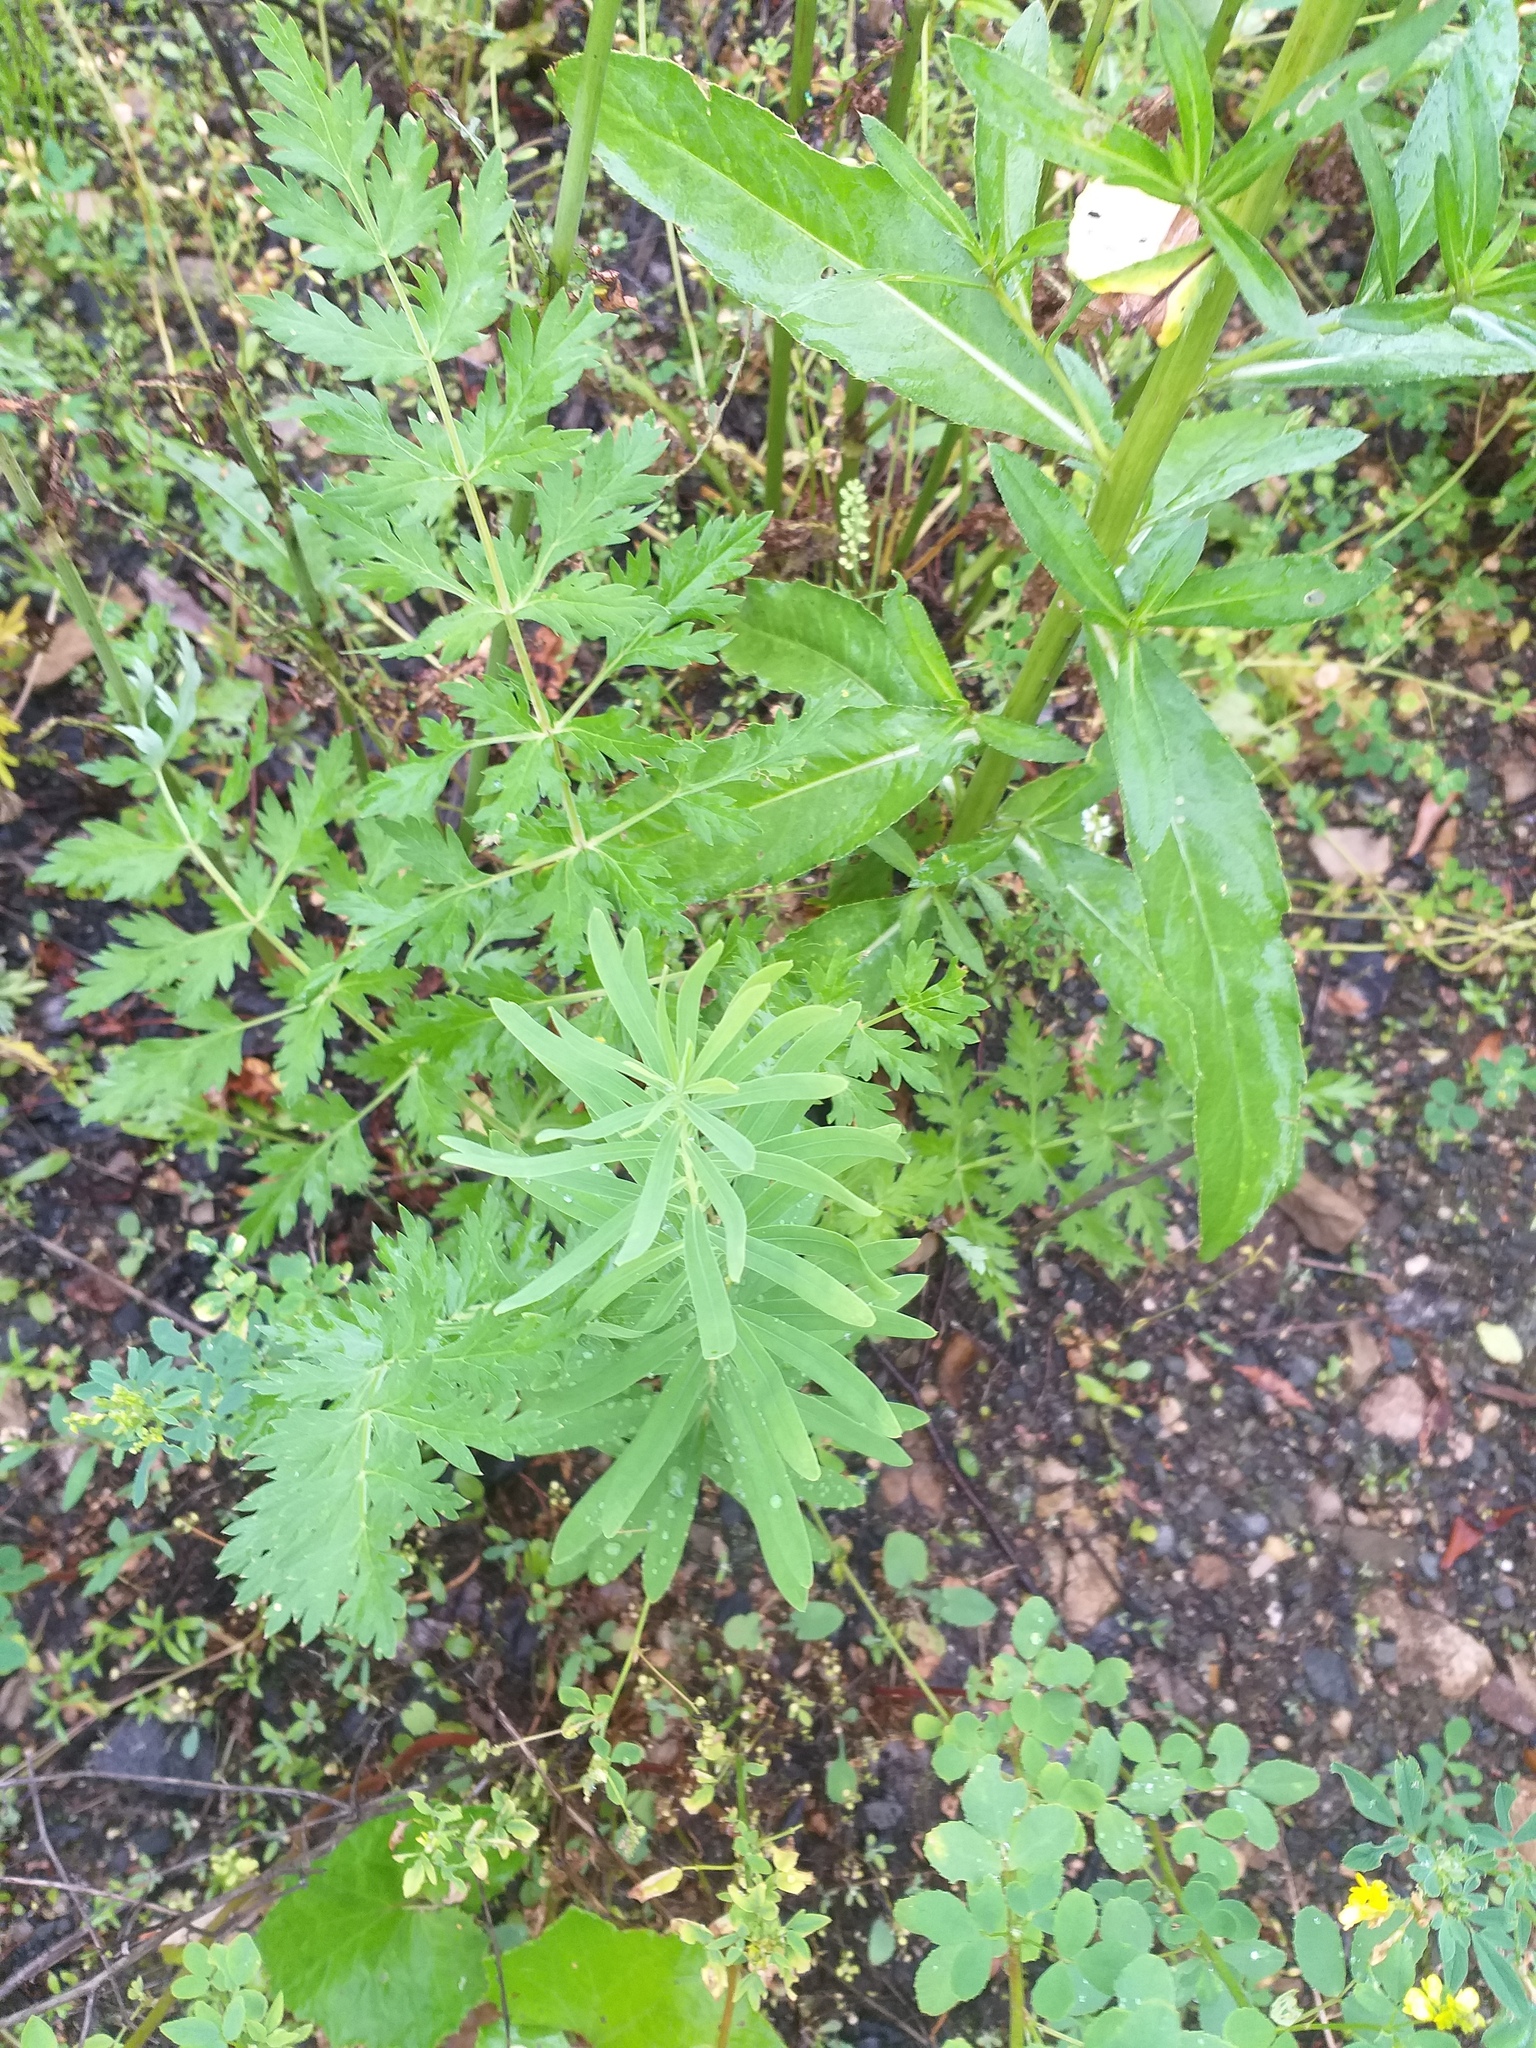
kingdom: Plantae
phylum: Tracheophyta
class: Magnoliopsida
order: Malpighiales
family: Euphorbiaceae
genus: Euphorbia
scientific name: Euphorbia virgata
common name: Leafy spurge
